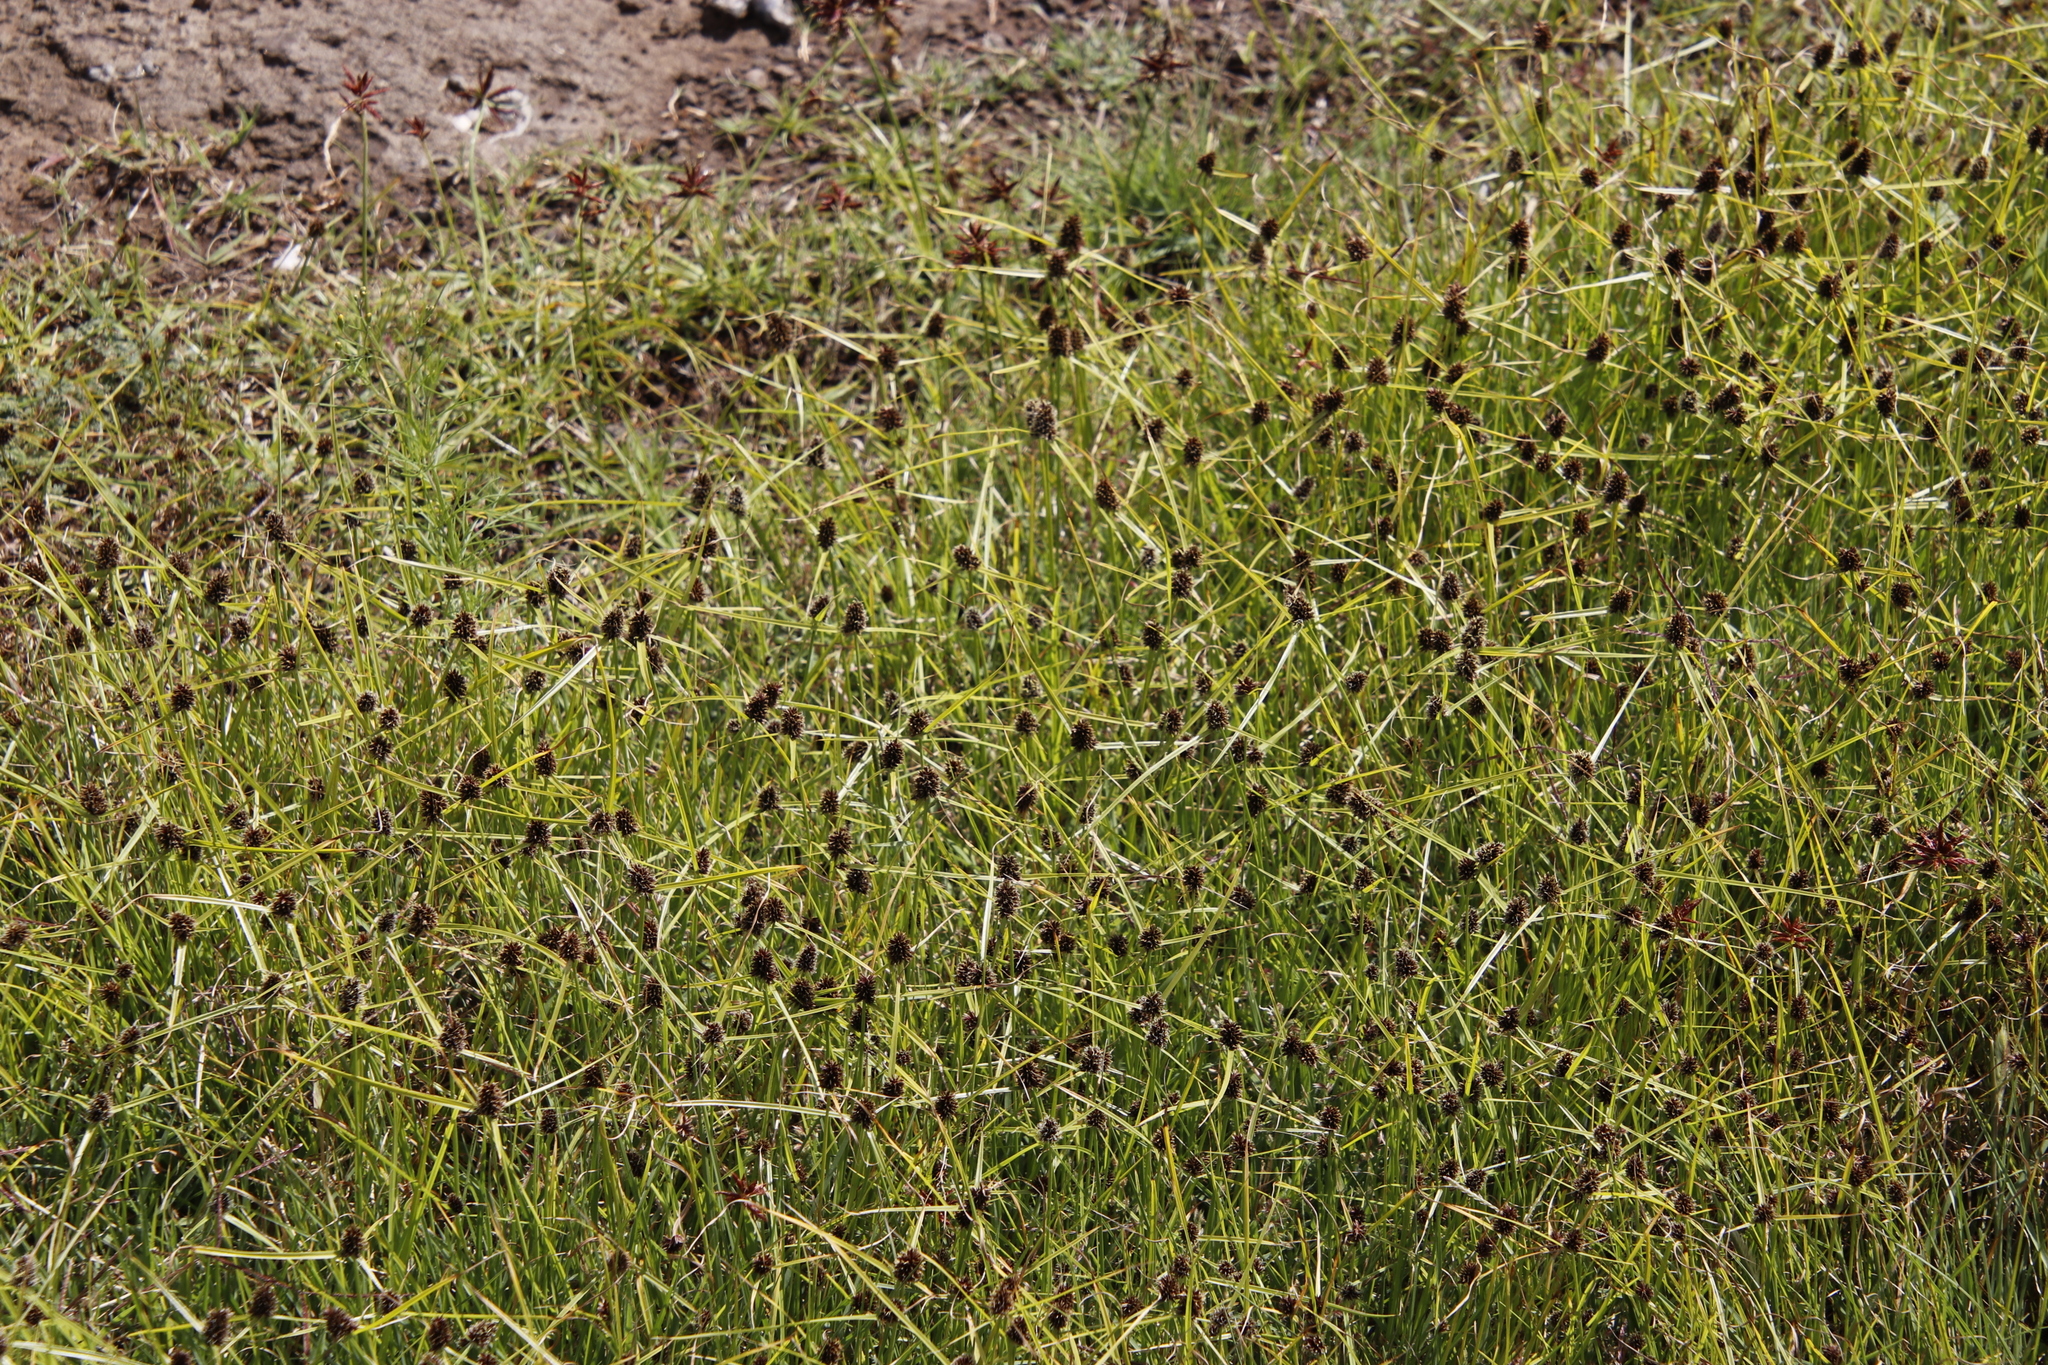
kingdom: Plantae
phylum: Tracheophyta
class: Liliopsida
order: Poales
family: Cyperaceae
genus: Cyperus
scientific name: Cyperus bracheilema
